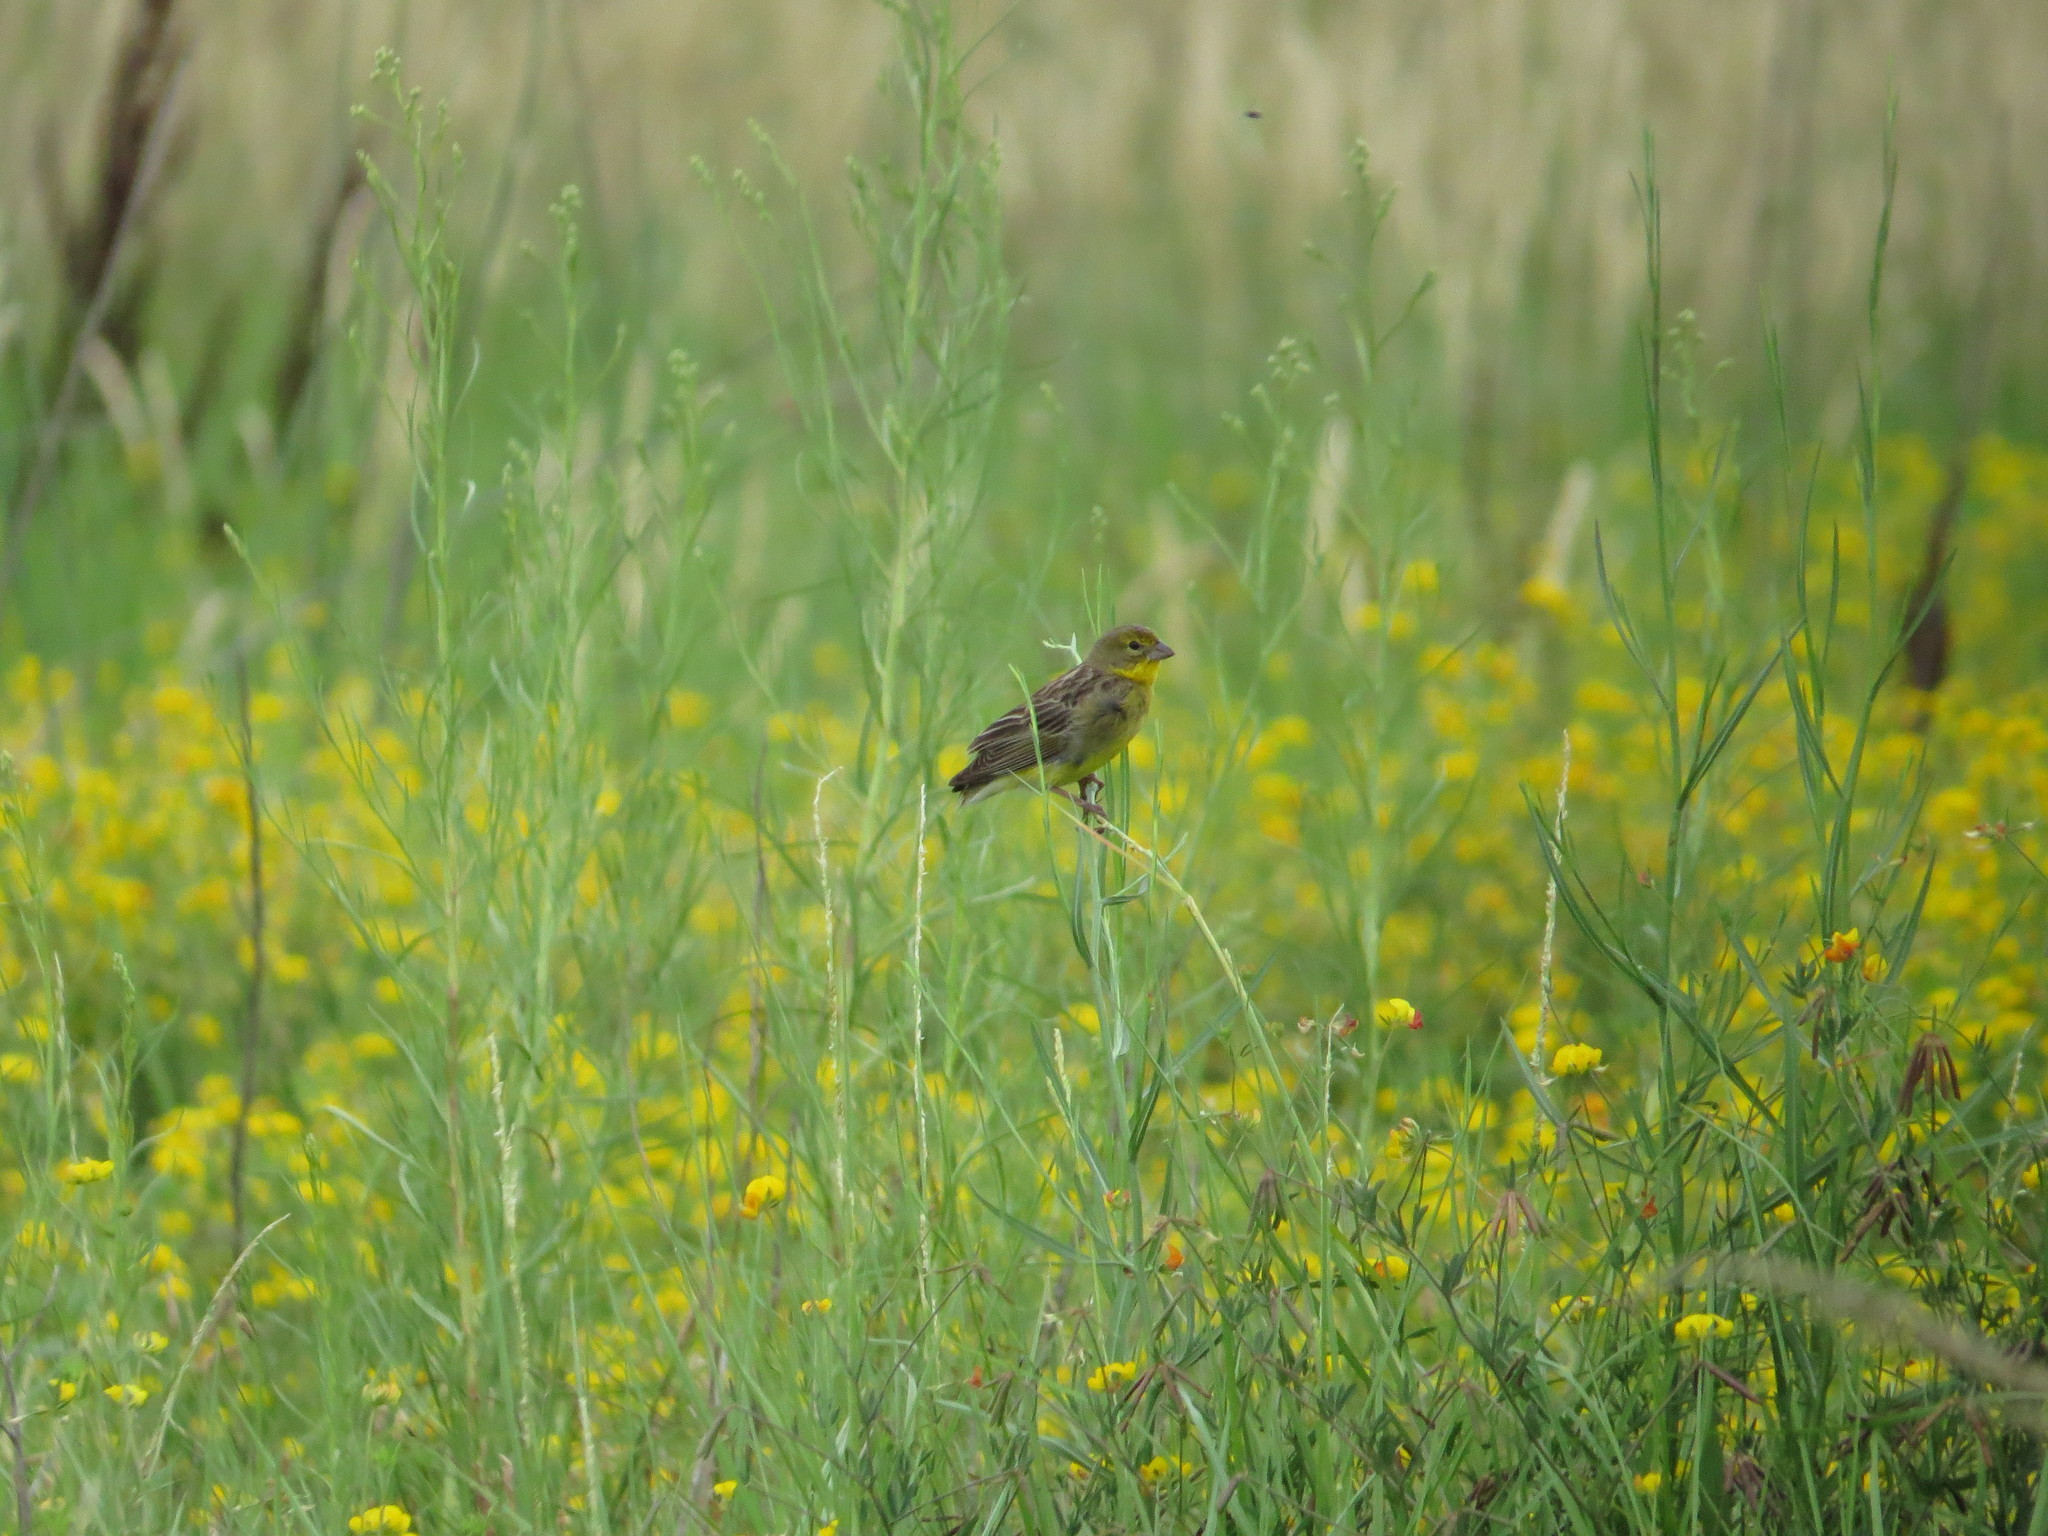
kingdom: Animalia
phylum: Chordata
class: Aves
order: Passeriformes
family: Thraupidae
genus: Sicalis
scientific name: Sicalis luteola
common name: Grassland yellow-finch
